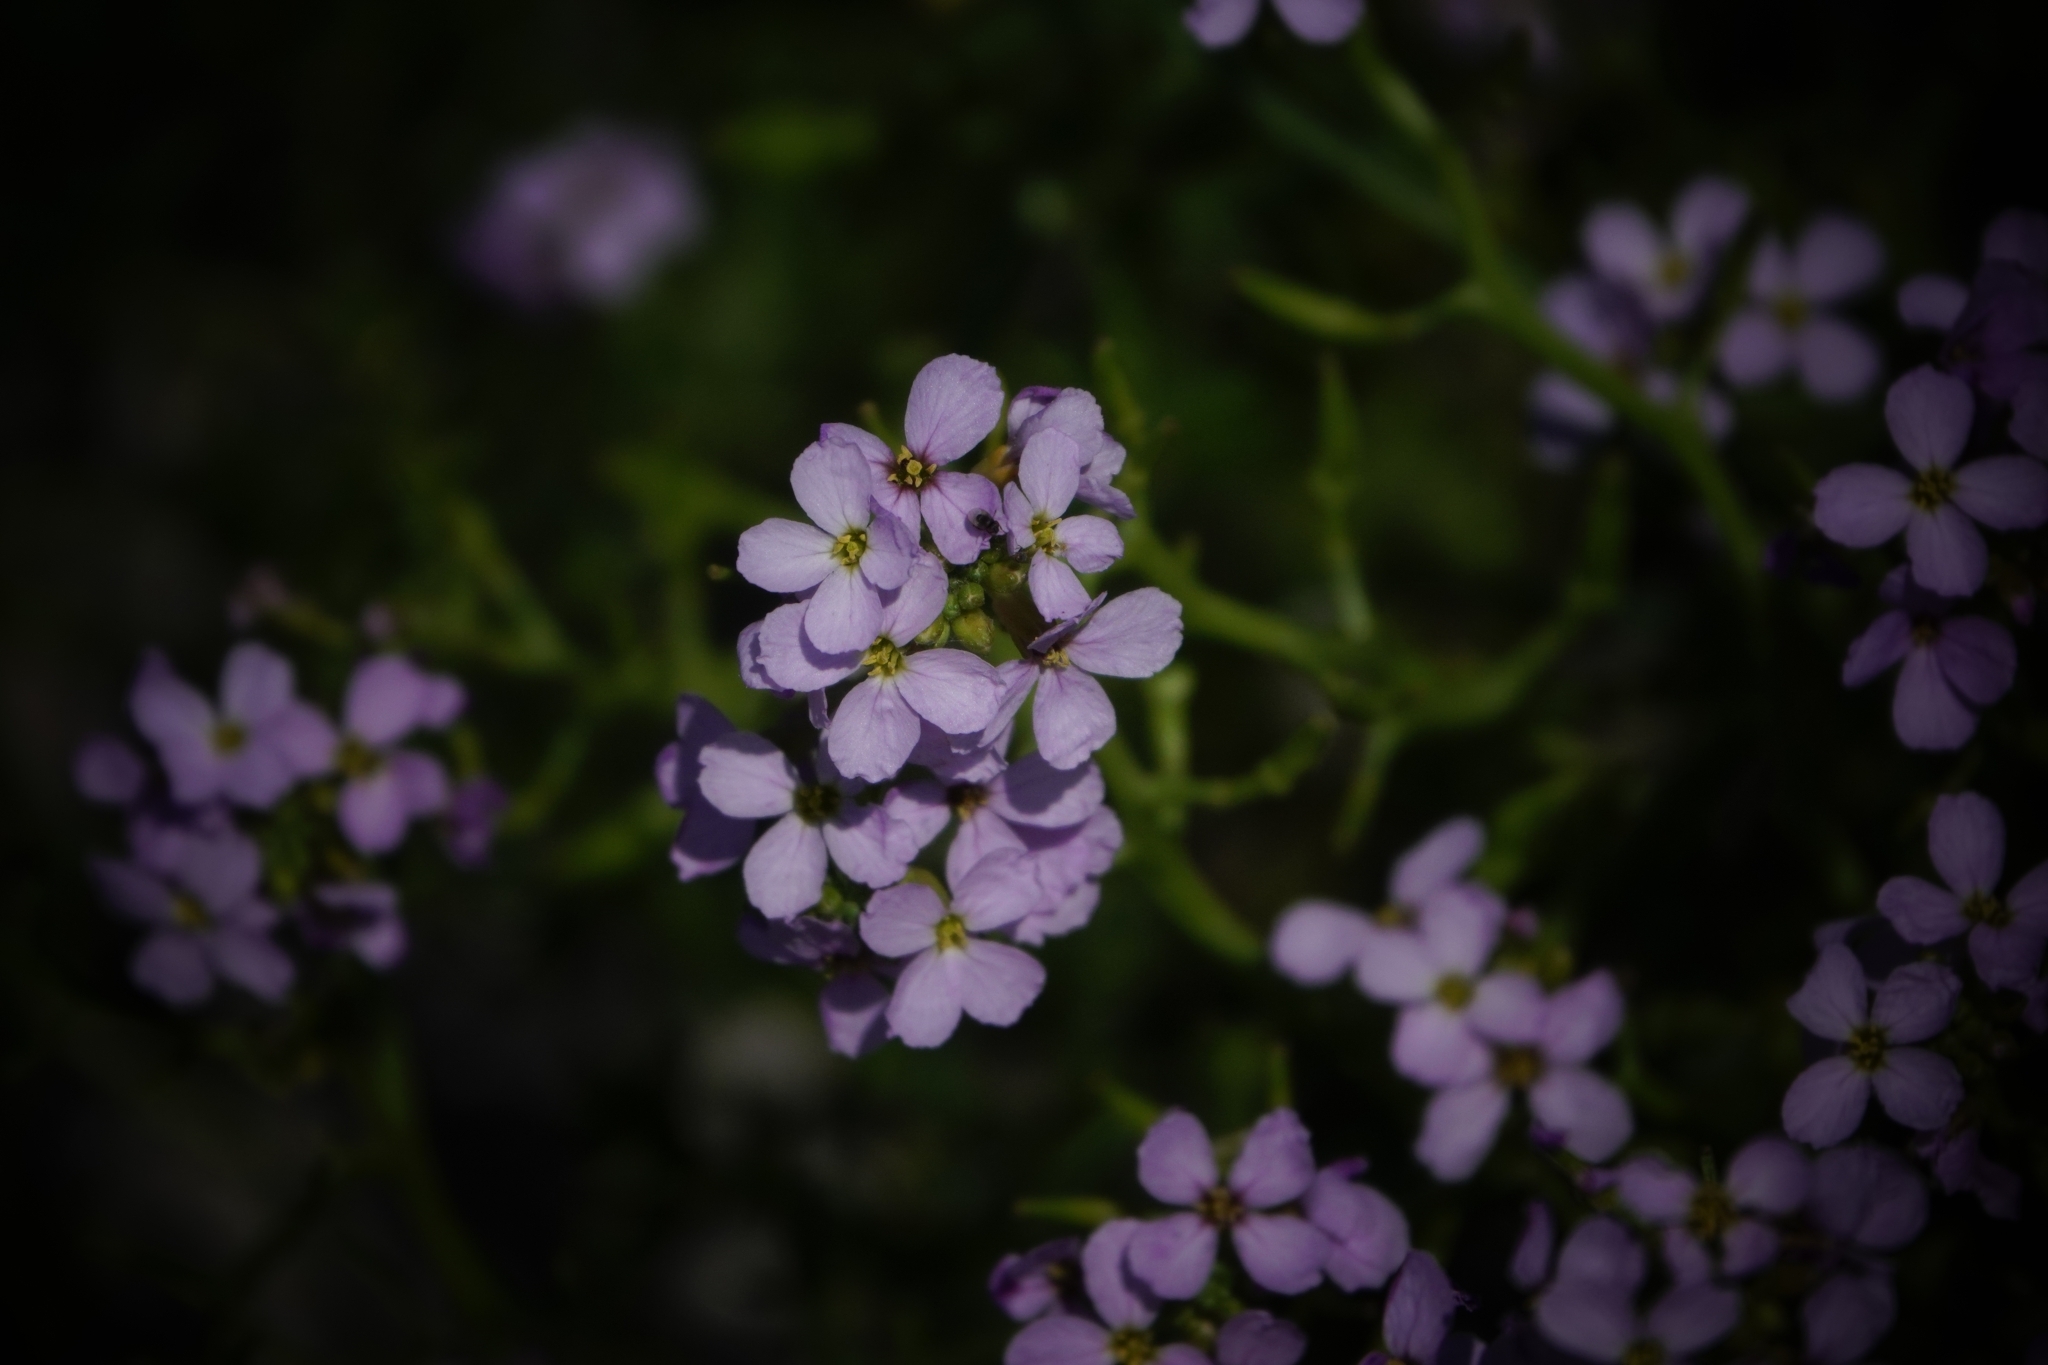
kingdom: Plantae
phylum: Tracheophyta
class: Magnoliopsida
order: Brassicales
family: Brassicaceae
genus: Cakile
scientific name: Cakile maritima
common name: Sea rocket
